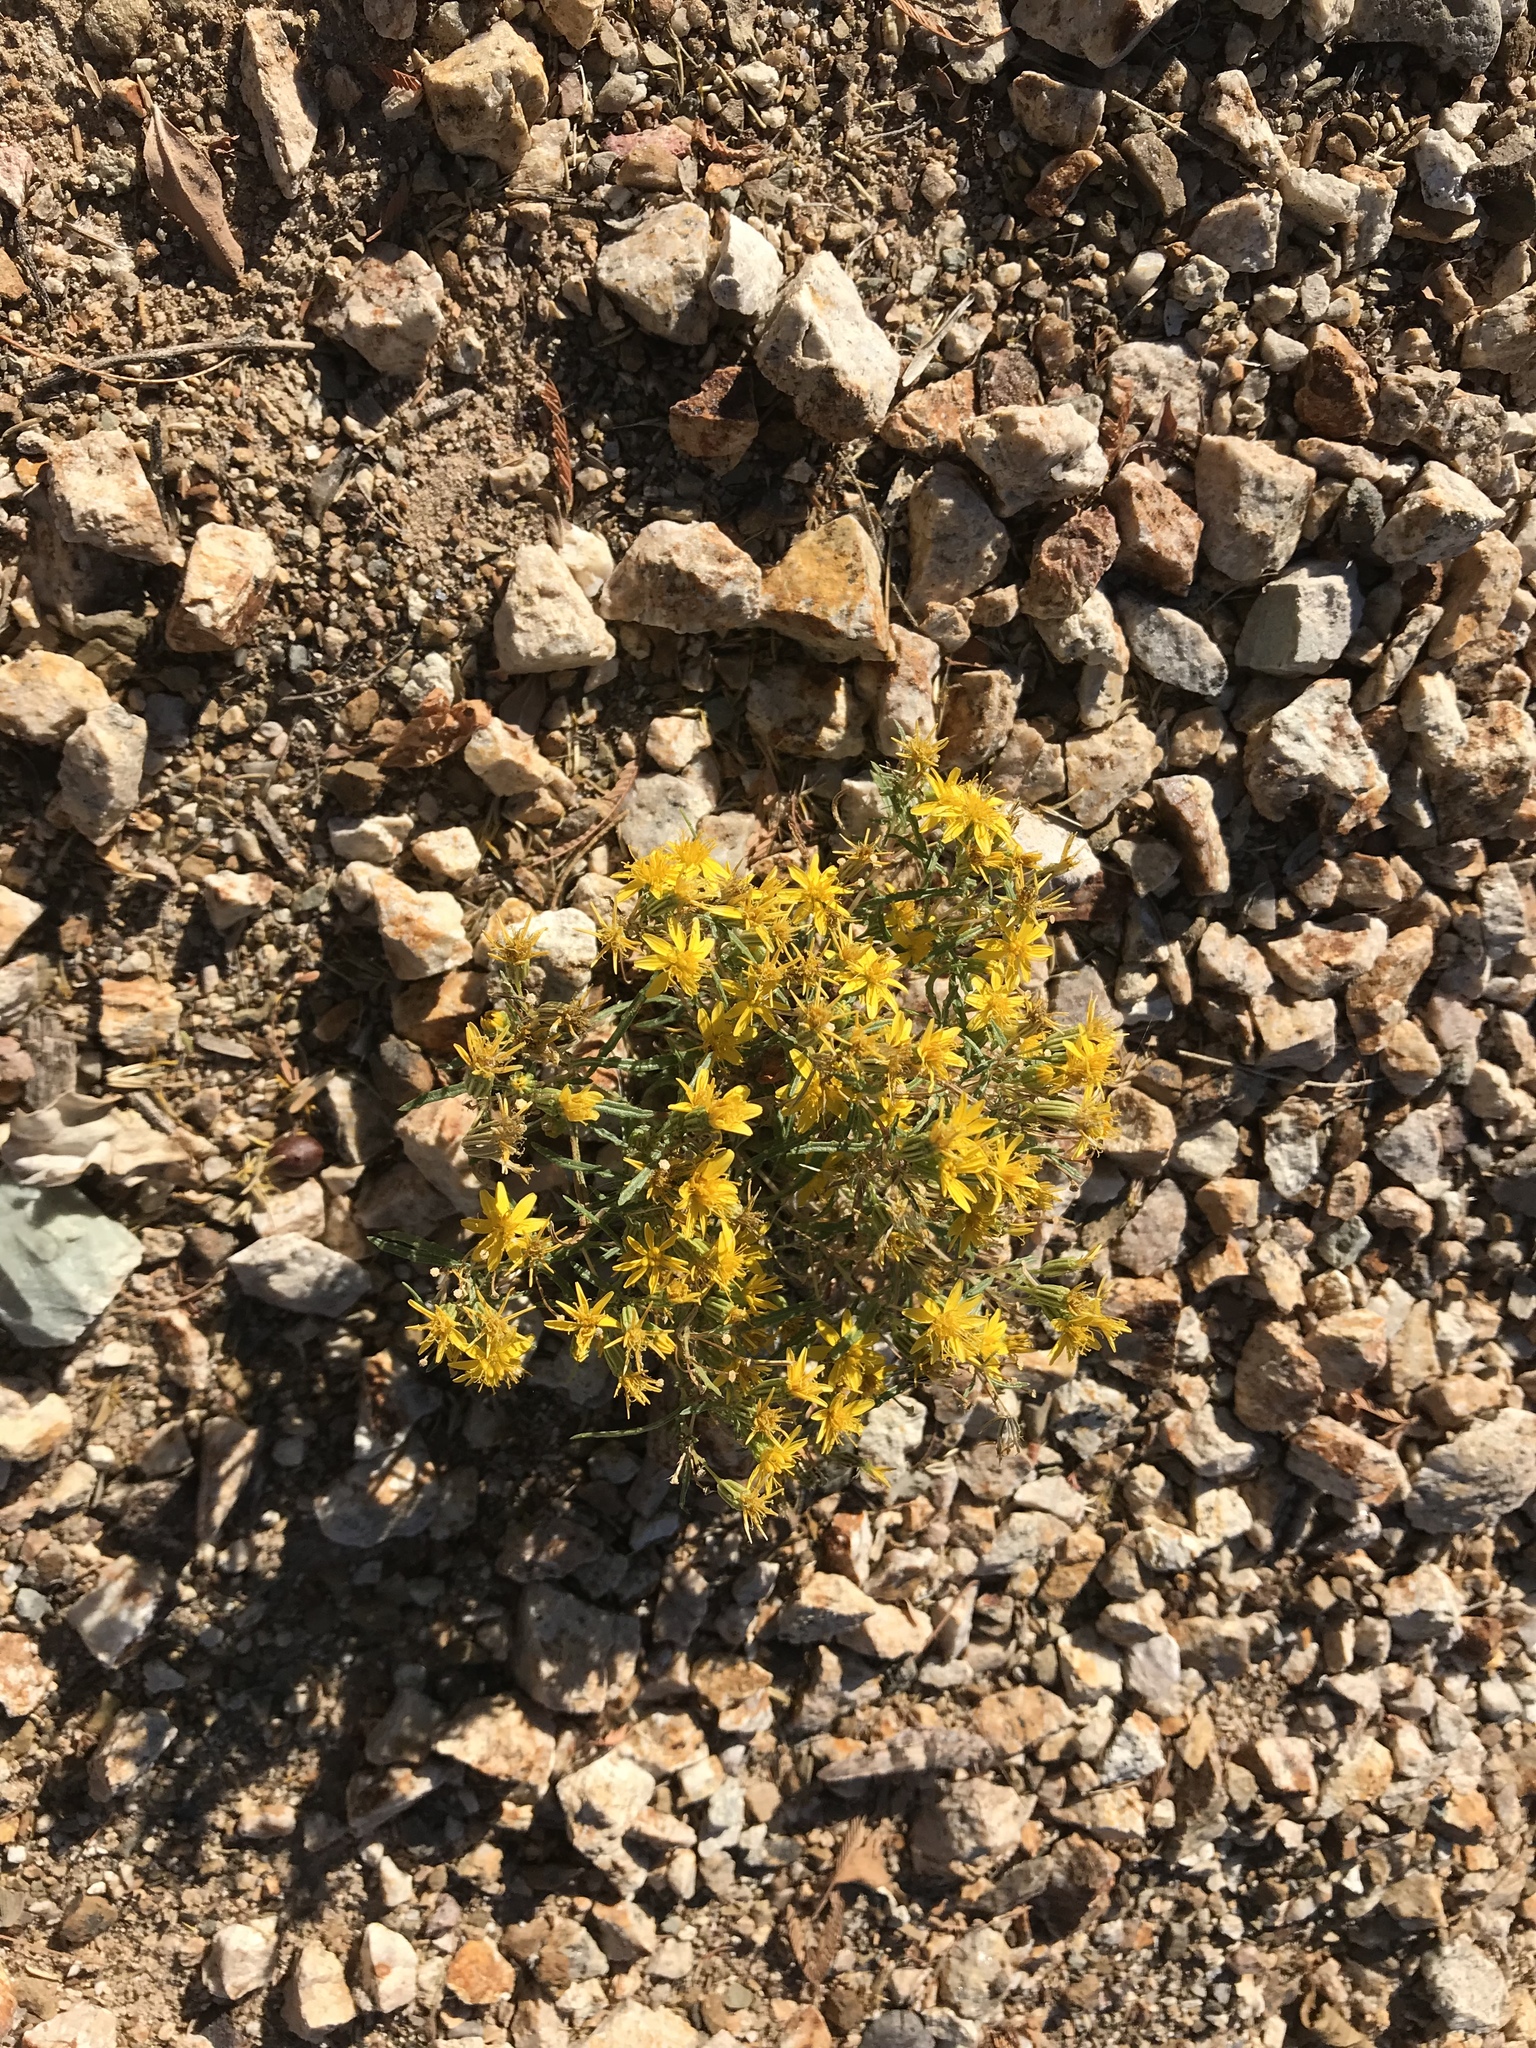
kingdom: Plantae
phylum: Tracheophyta
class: Magnoliopsida
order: Asterales
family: Asteraceae
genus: Pectis
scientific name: Pectis papposa
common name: Many-bristle chinchweed
